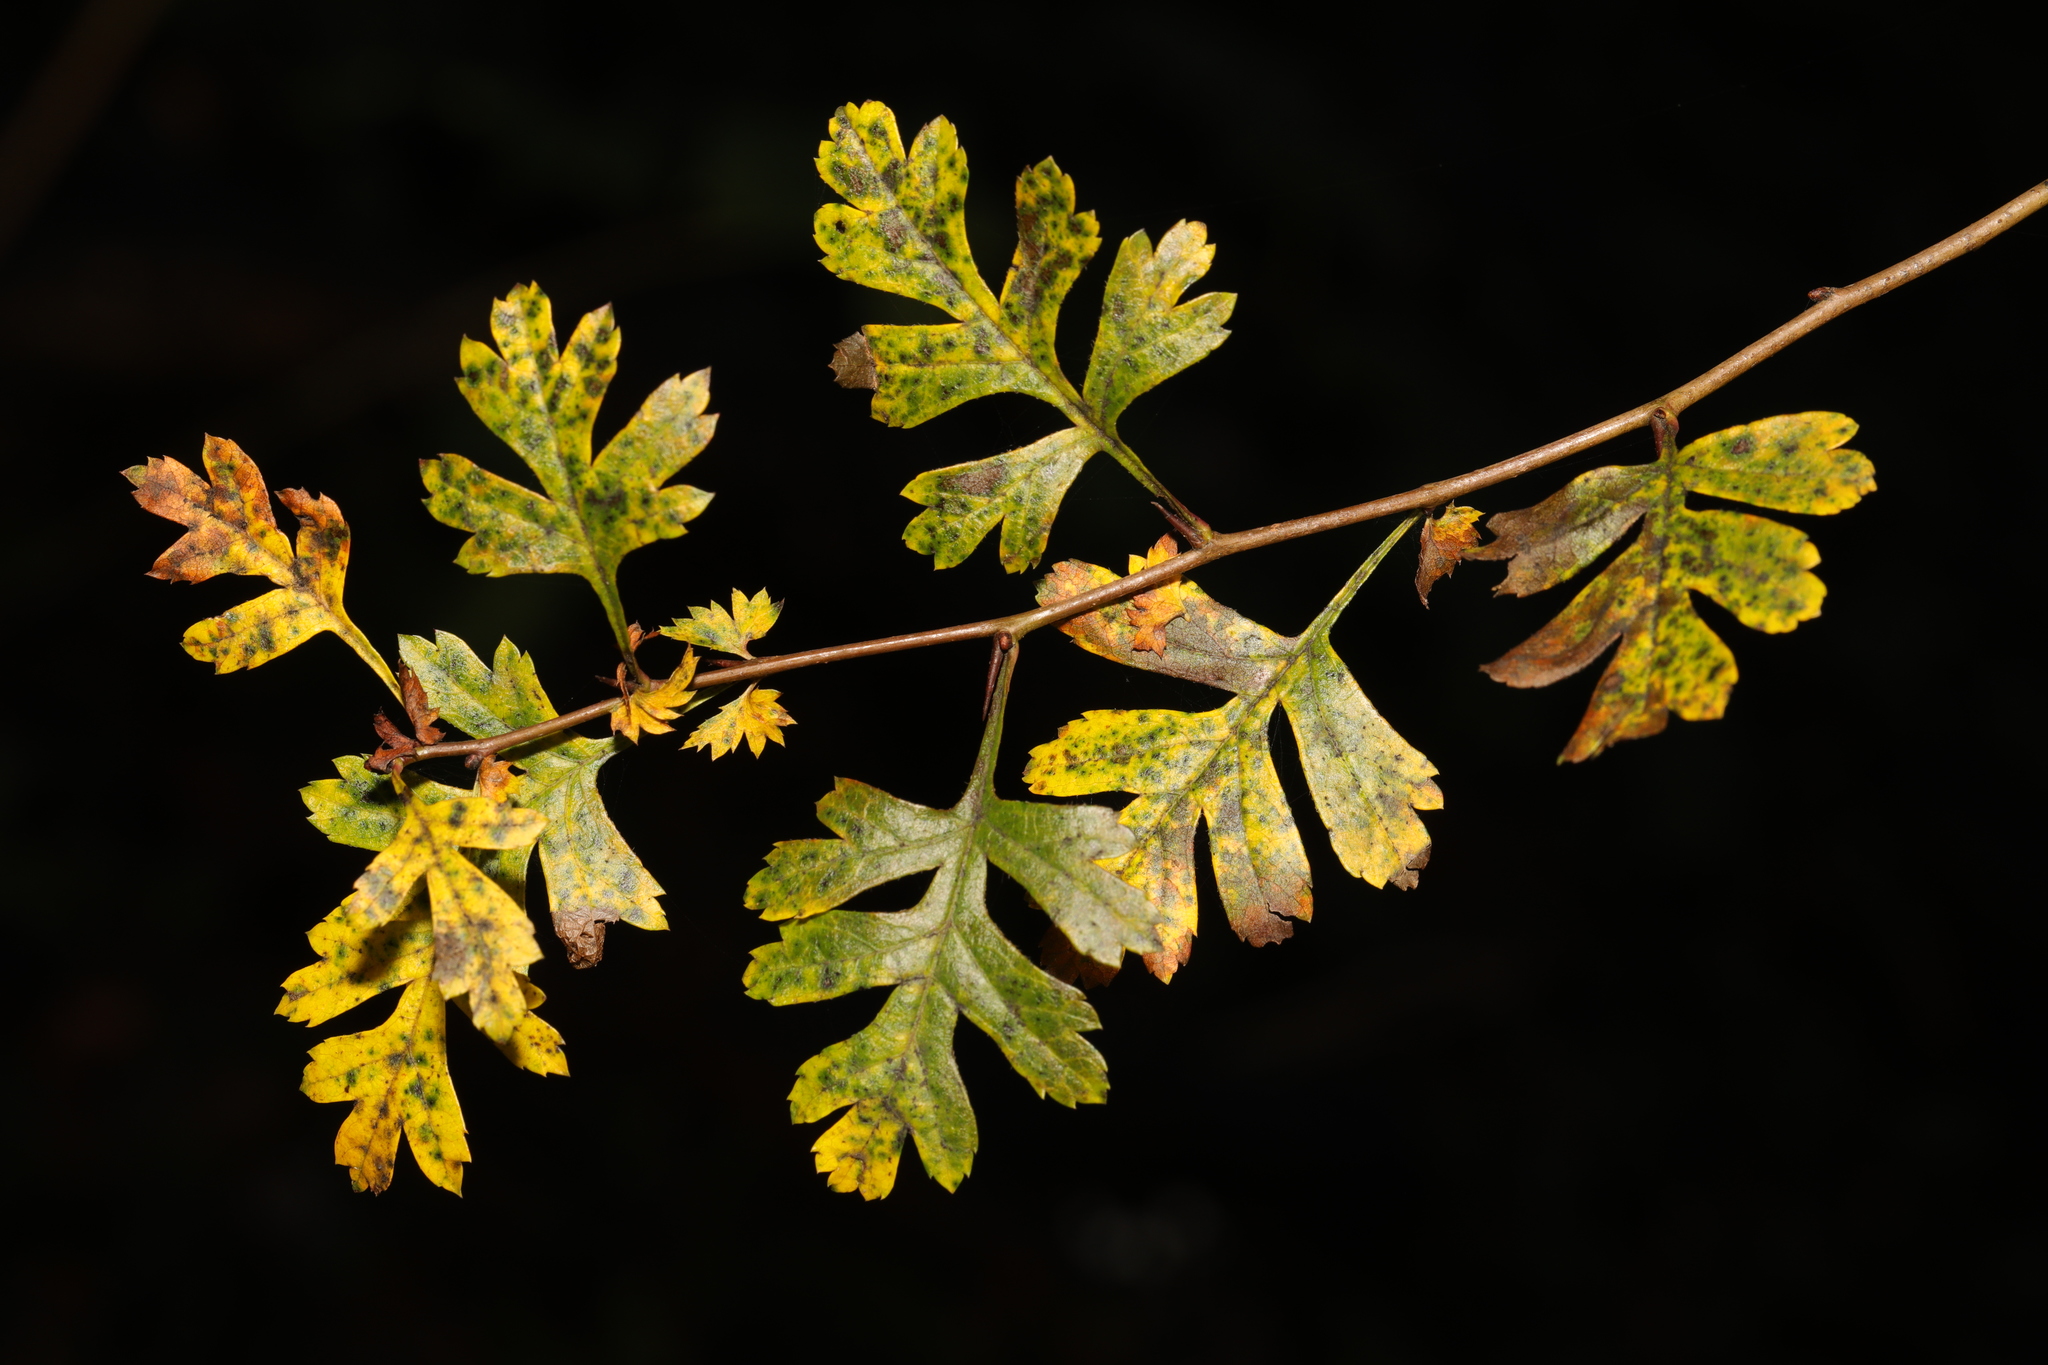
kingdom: Plantae
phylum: Tracheophyta
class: Magnoliopsida
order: Rosales
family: Rosaceae
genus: Crataegus
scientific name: Crataegus monogyna
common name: Hawthorn
